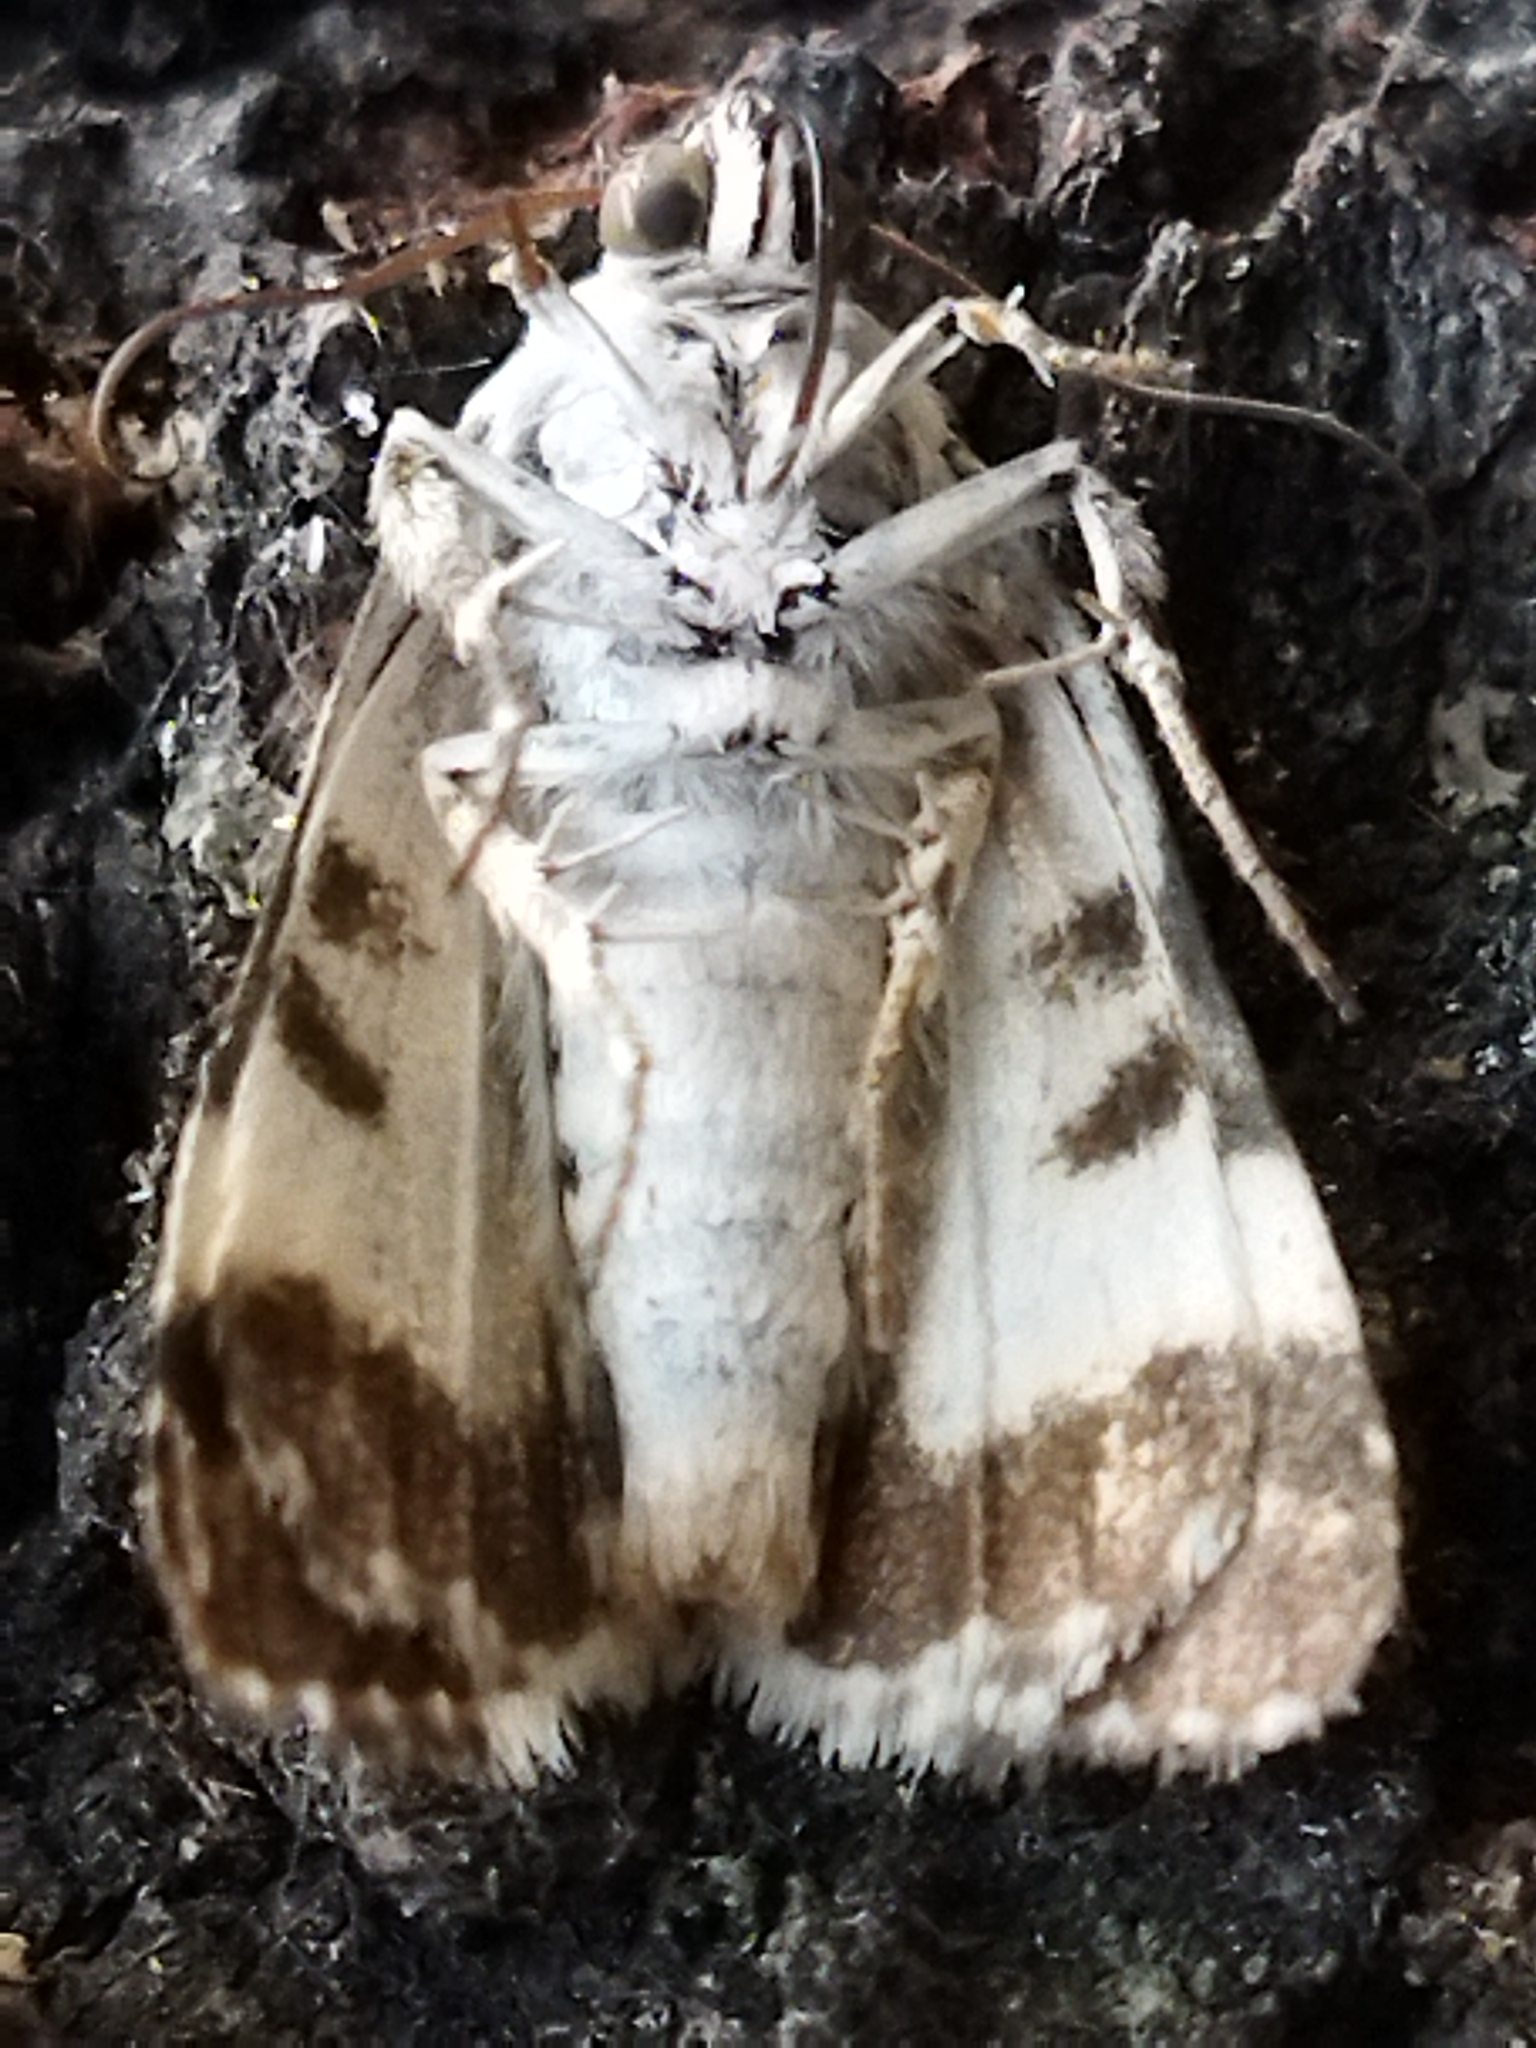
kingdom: Animalia
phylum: Arthropoda
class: Insecta
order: Lepidoptera
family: Noctuidae
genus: Acontia
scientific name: Acontia lucida
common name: Pale shoulder
